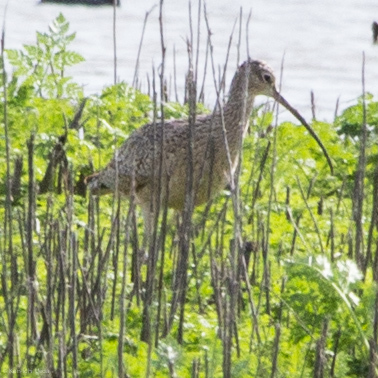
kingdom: Animalia
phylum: Chordata
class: Aves
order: Charadriiformes
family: Scolopacidae
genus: Numenius
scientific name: Numenius americanus
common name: Long-billed curlew
